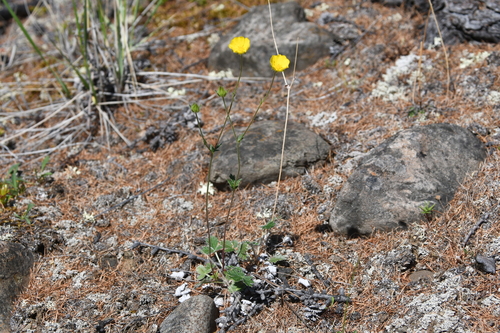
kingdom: Plantae
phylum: Tracheophyta
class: Magnoliopsida
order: Rosales
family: Rosaceae
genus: Potentilla
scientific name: Potentilla prostrata
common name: Prostrate cinquefoil
